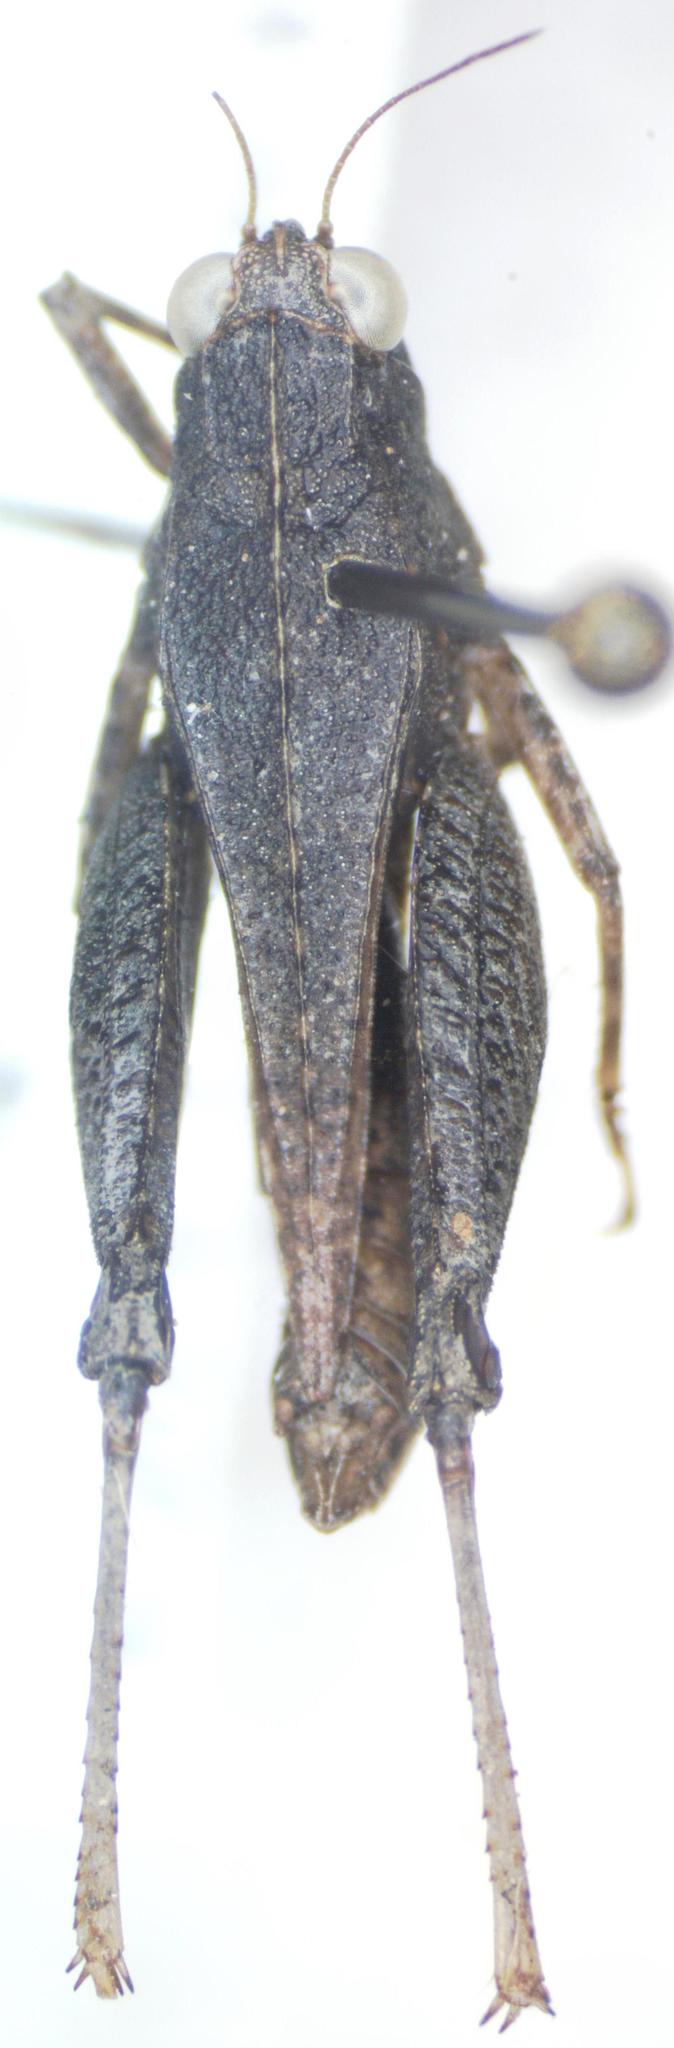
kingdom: Animalia
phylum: Arthropoda
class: Insecta
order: Orthoptera
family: Tetrigidae
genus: Tettigidea
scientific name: Tettigidea laterale
